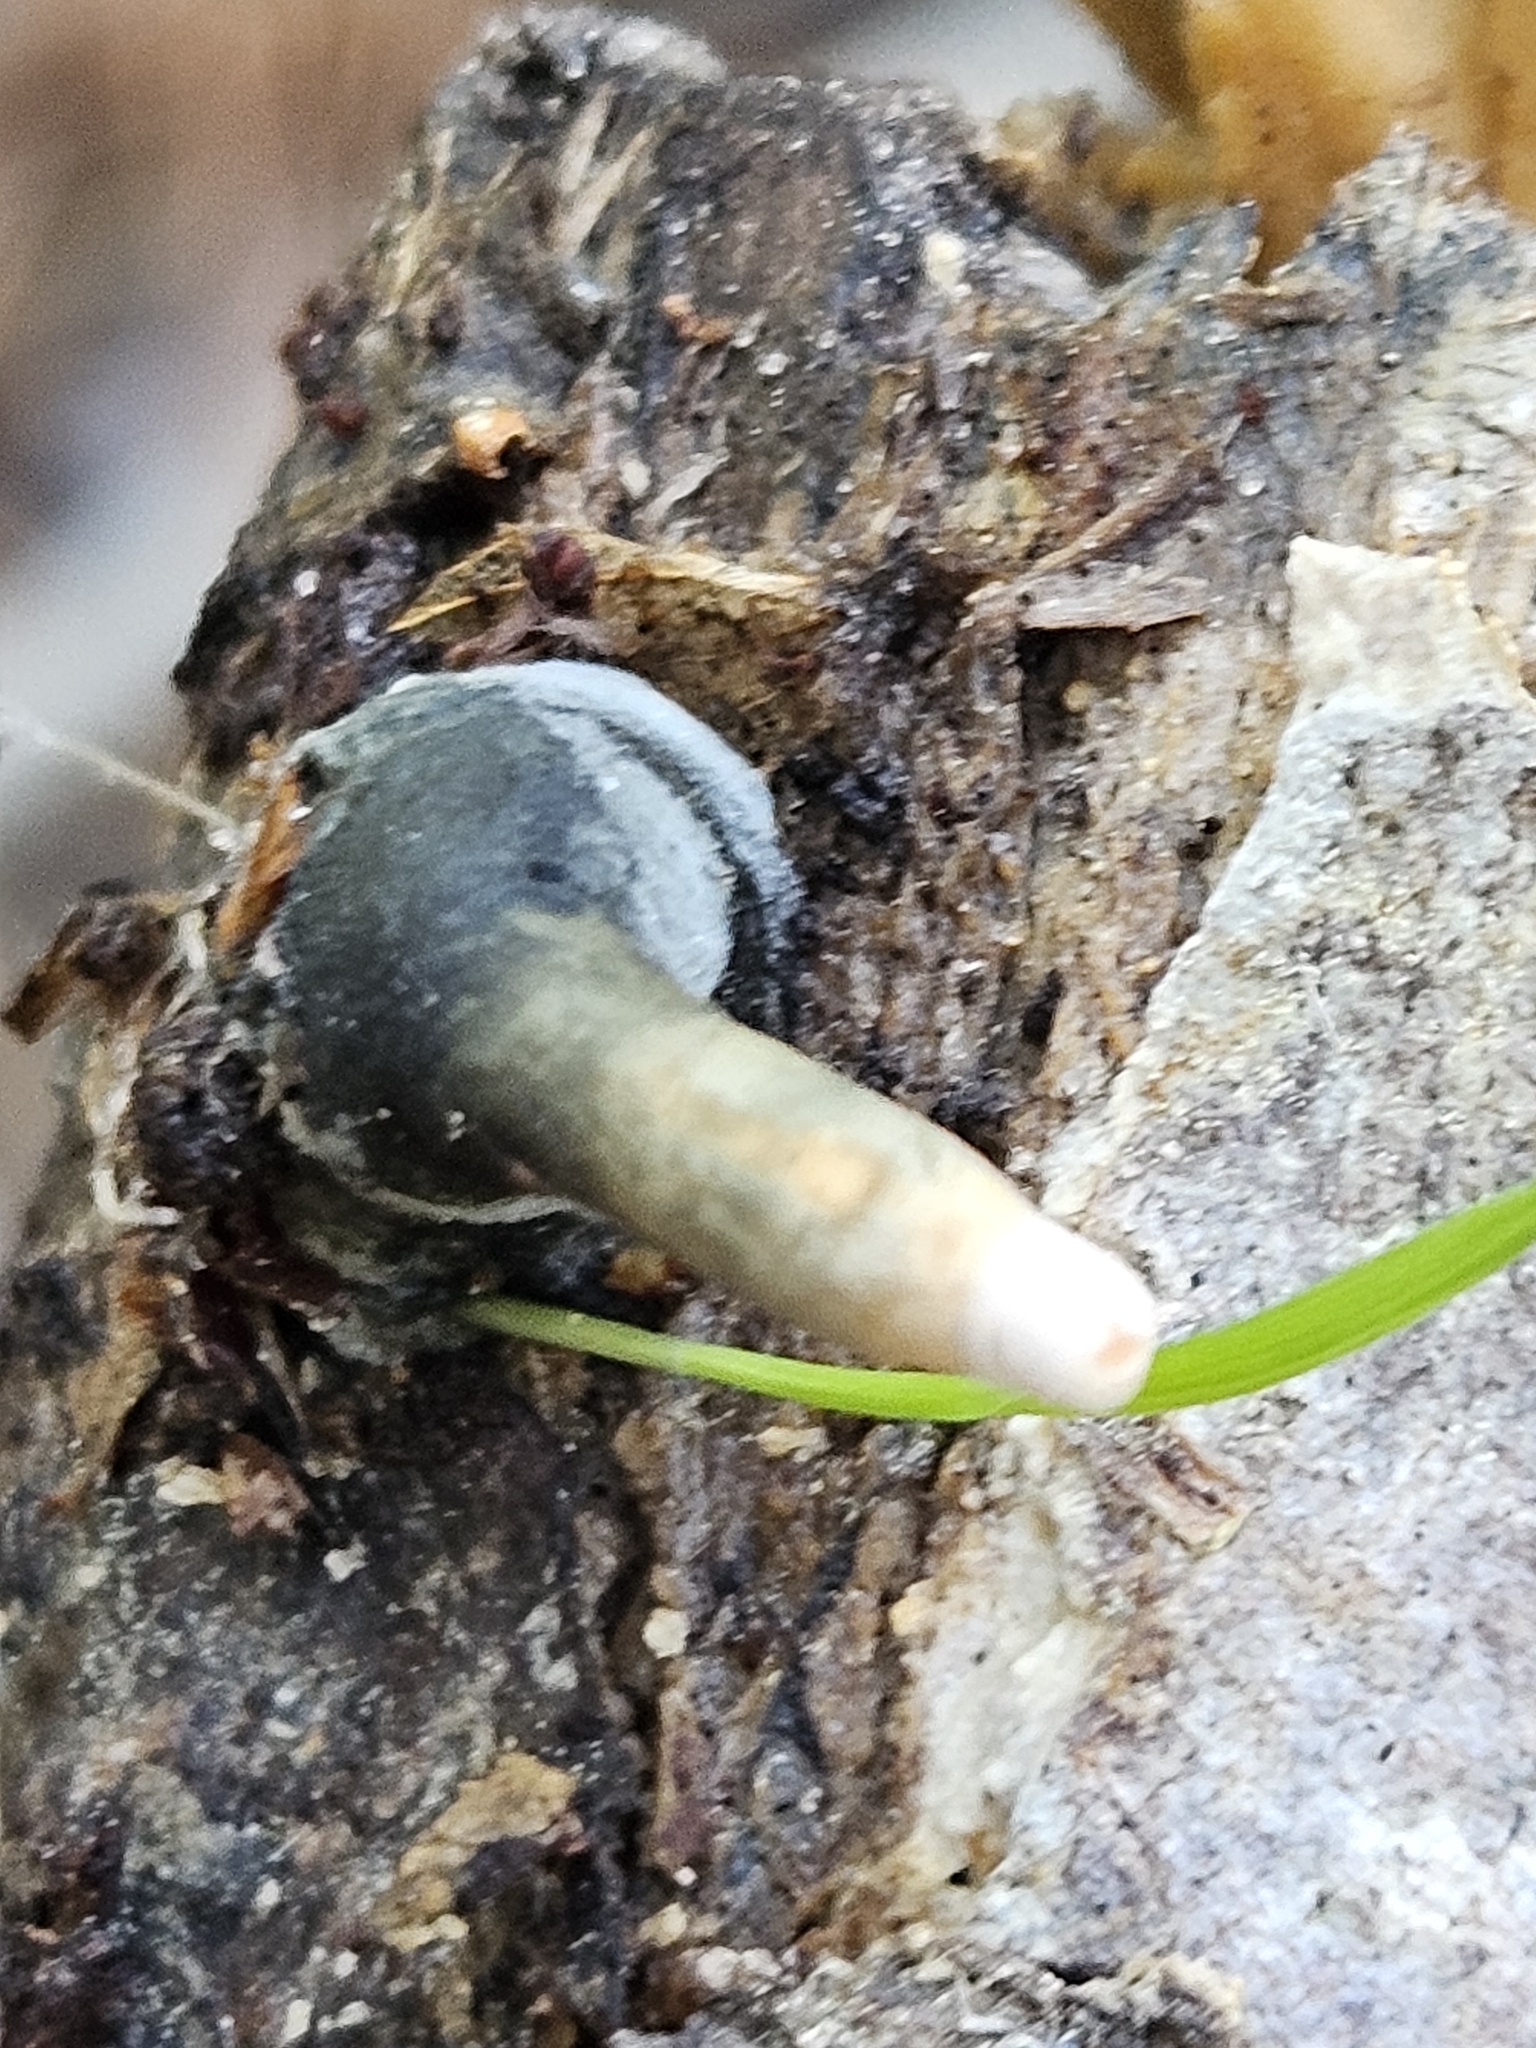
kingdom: Fungi
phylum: Ascomycota
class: Sordariomycetes
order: Xylariales
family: Xylariaceae
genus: Xylaria
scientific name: Xylaria cubensis
